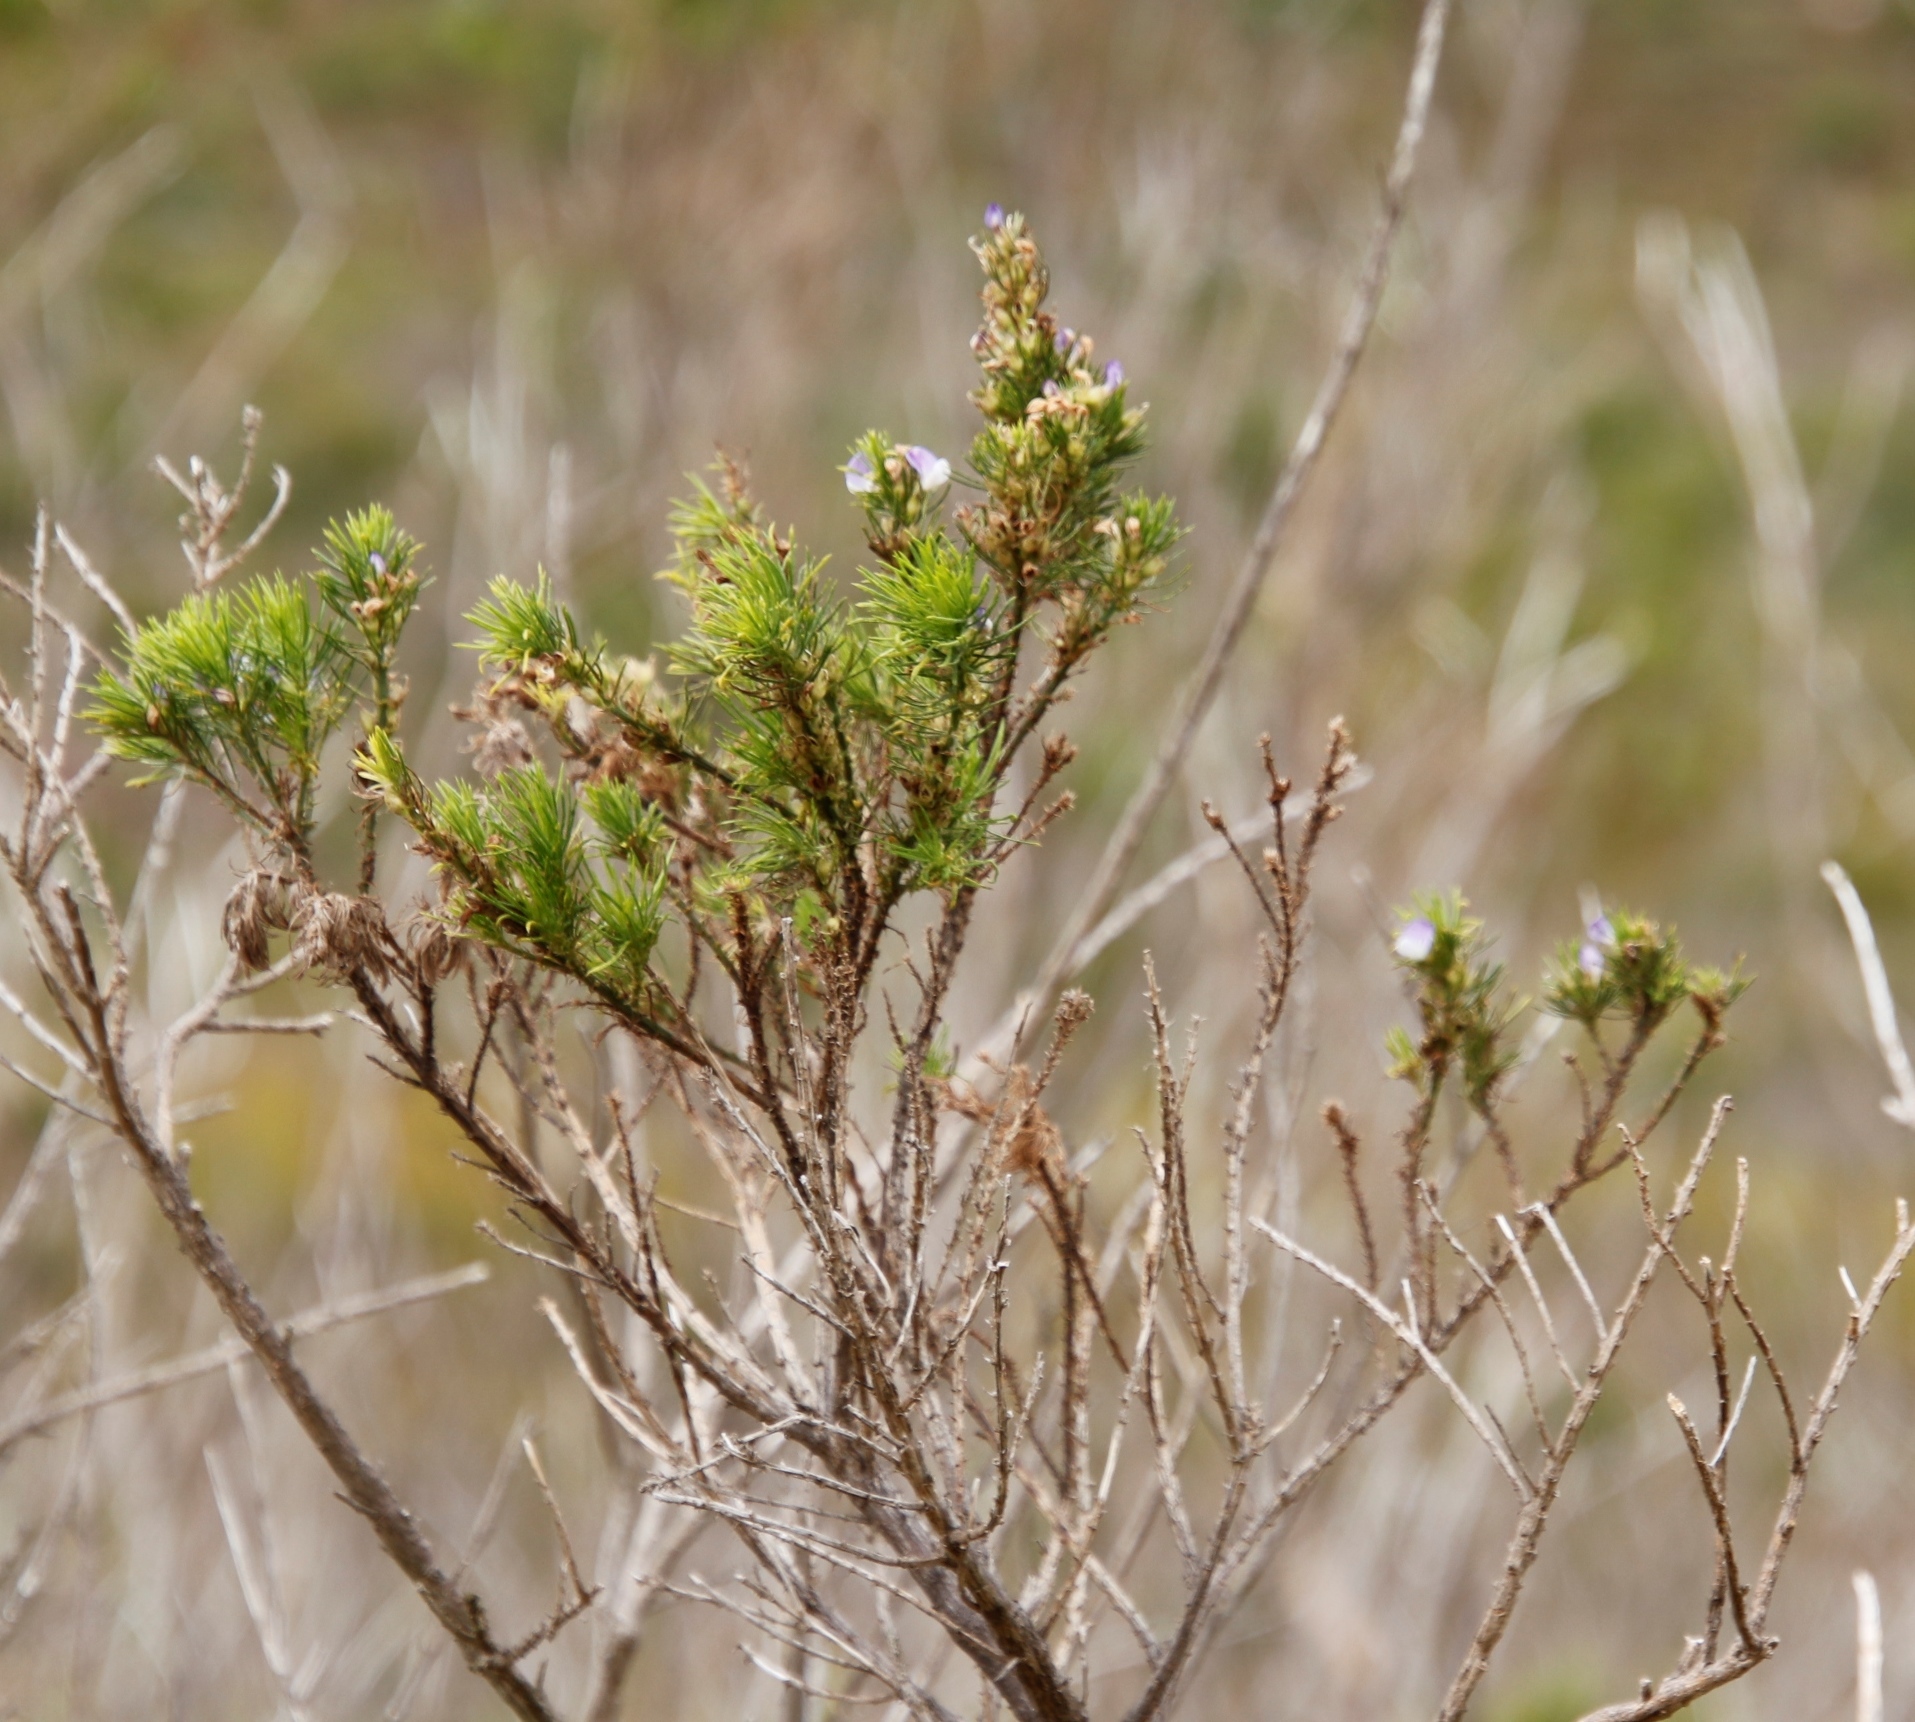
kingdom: Plantae
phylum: Tracheophyta
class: Magnoliopsida
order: Fabales
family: Fabaceae
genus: Psoralea
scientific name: Psoralea pinnata
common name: African scurfpea
